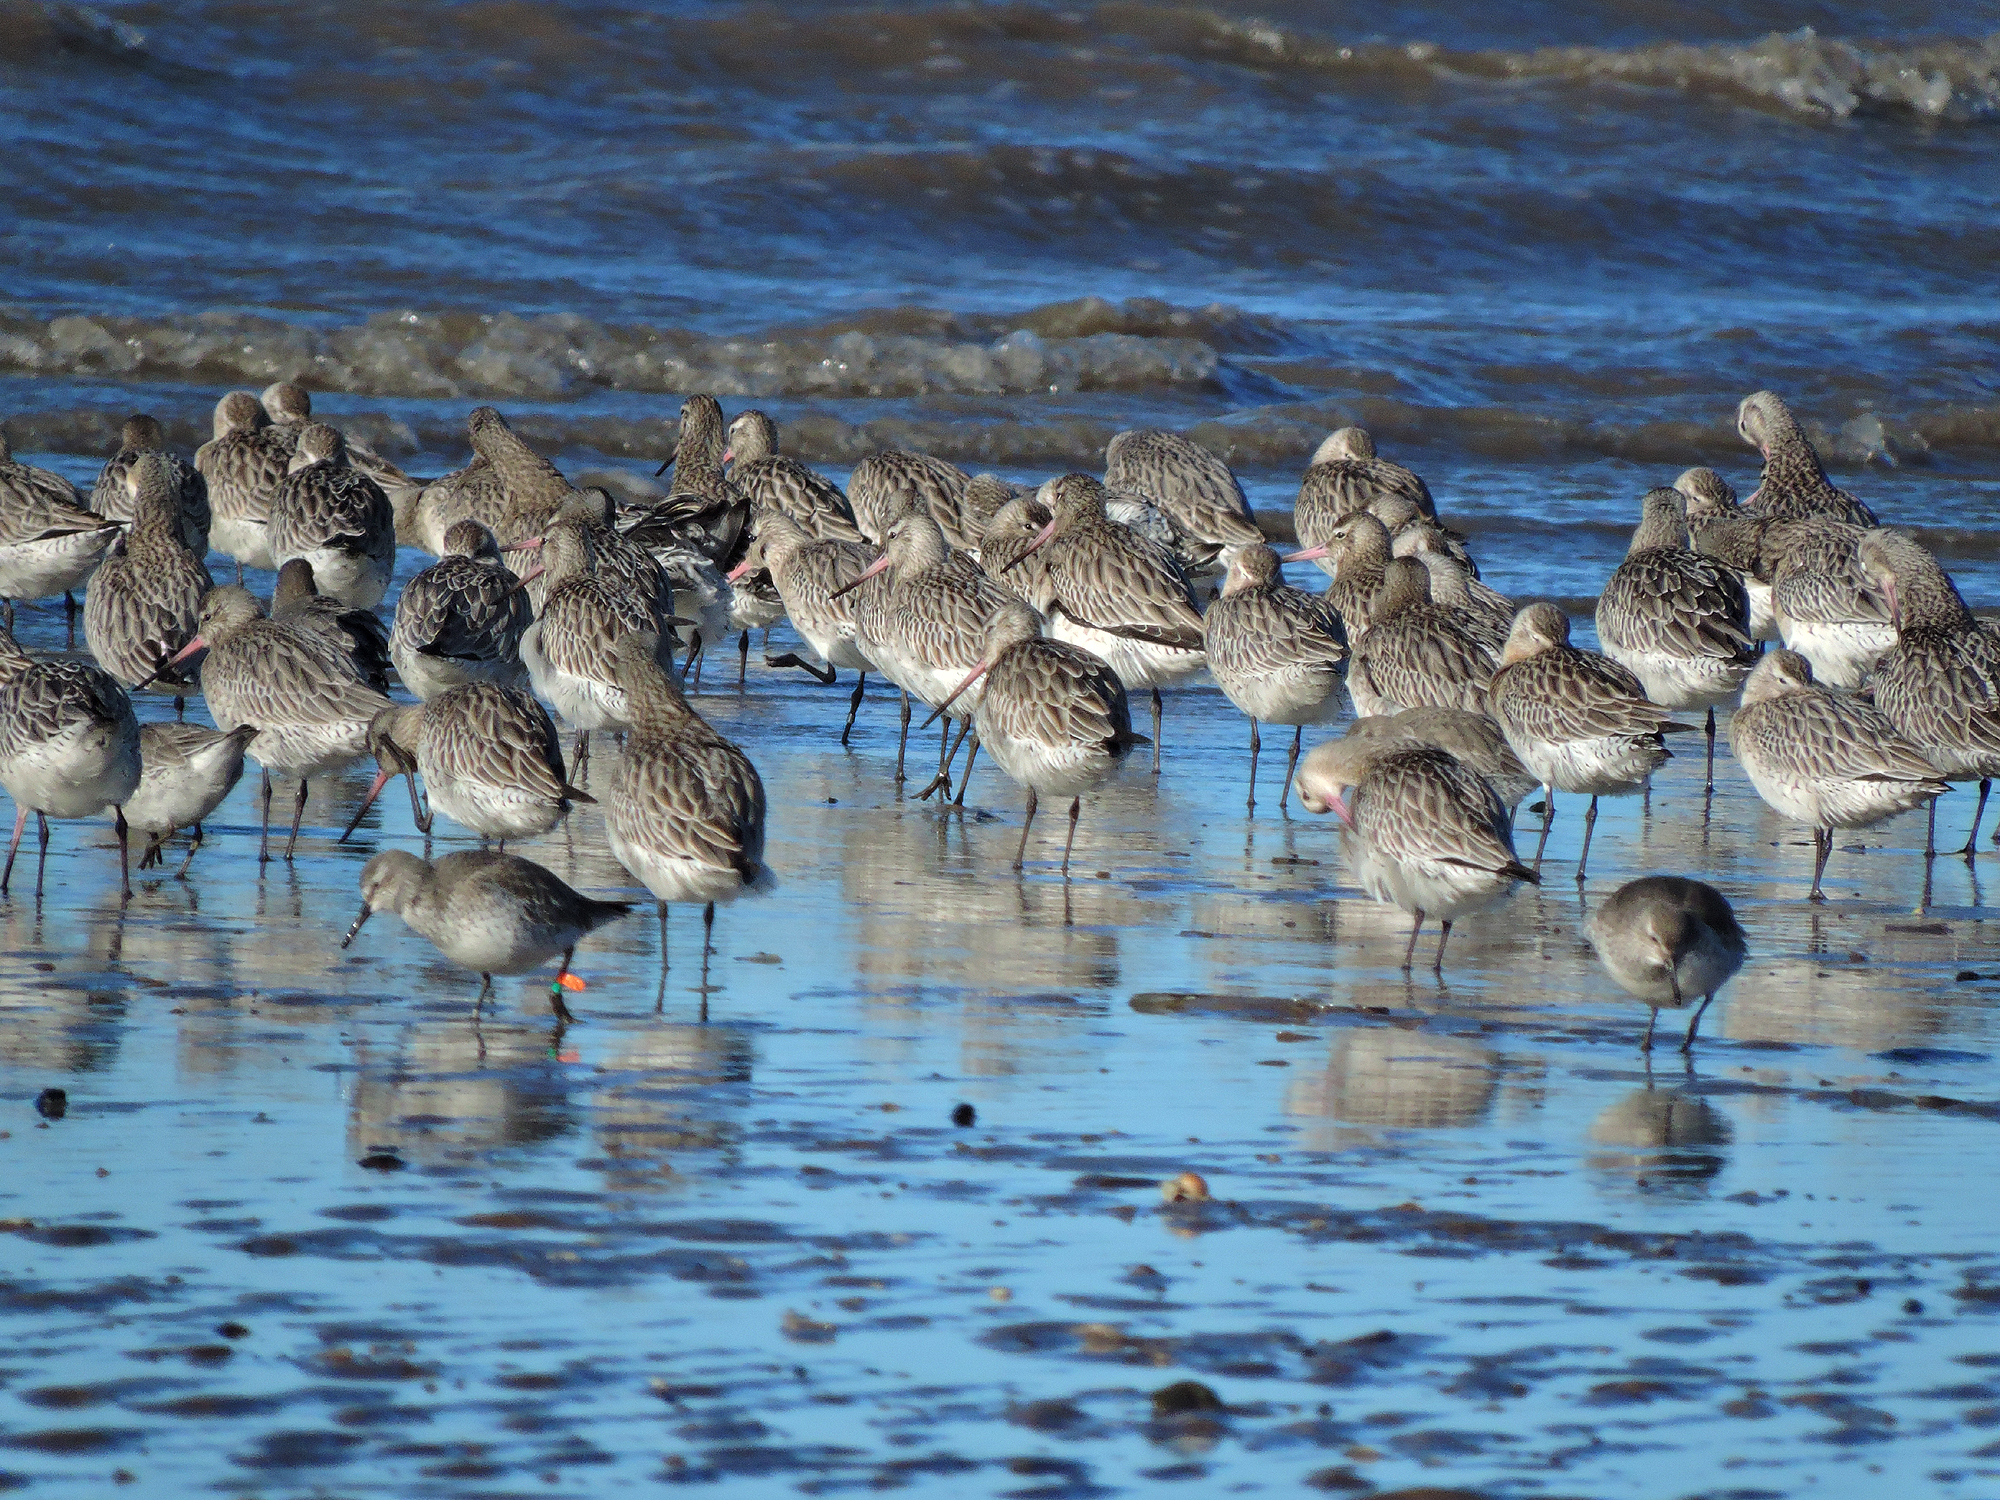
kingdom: Animalia
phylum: Chordata
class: Aves
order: Charadriiformes
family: Scolopacidae
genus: Limosa
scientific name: Limosa lapponica
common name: Bar-tailed godwit
